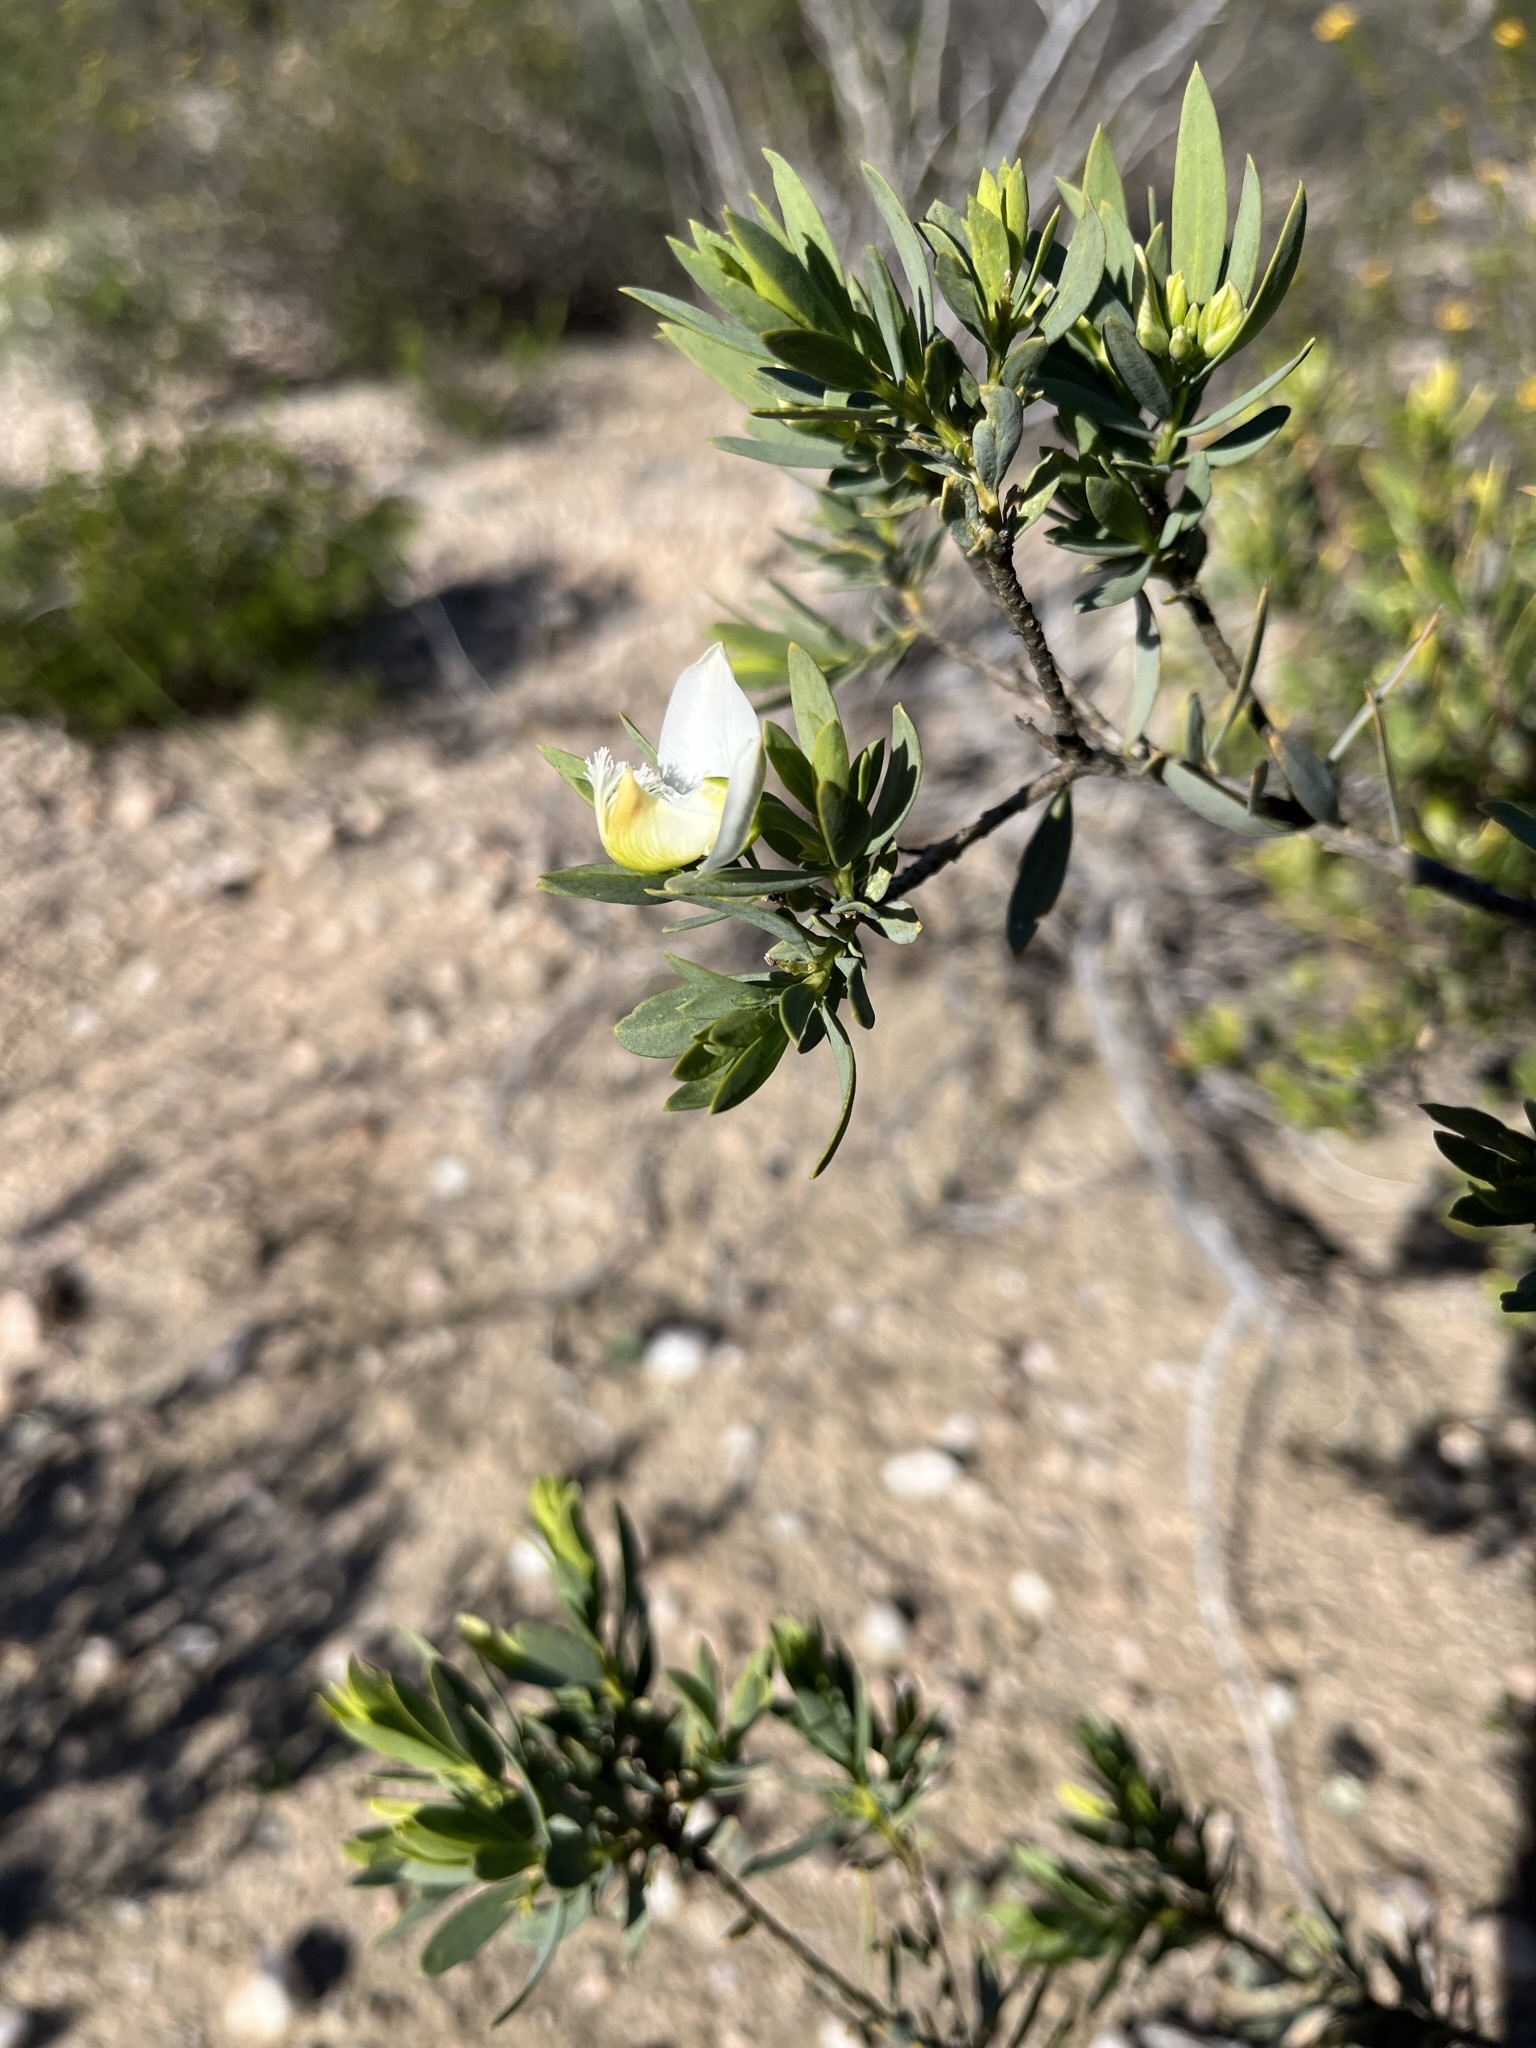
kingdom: Plantae
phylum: Tracheophyta
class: Magnoliopsida
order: Fabales
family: Polygalaceae
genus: Polygala
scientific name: Polygala myrtifolia
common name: Myrtle-leaf milkwort
